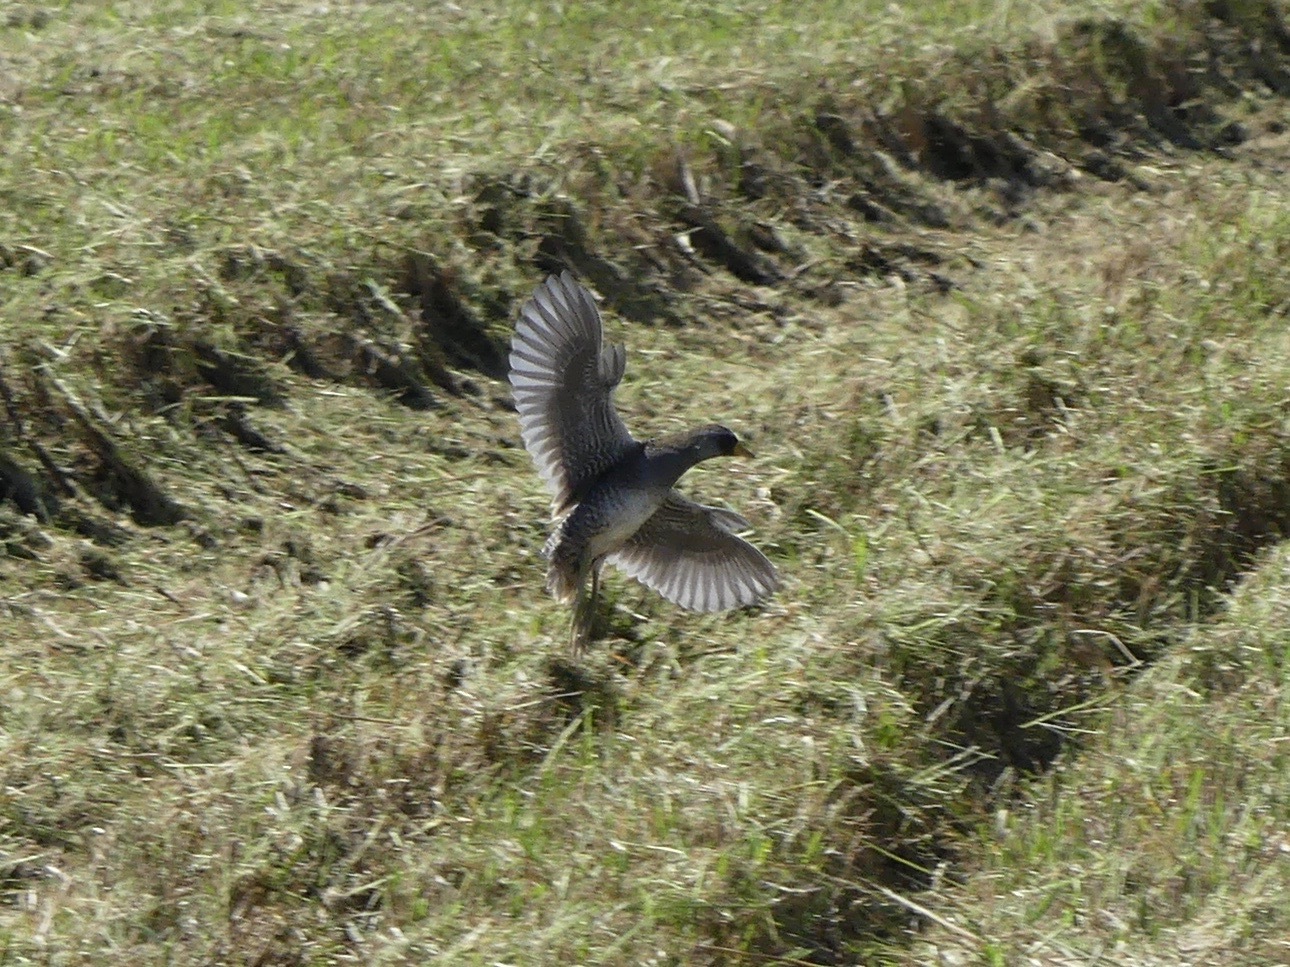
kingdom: Animalia
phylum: Chordata
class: Aves
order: Gruiformes
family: Rallidae
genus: Porzana
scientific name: Porzana carolina
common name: Sora
